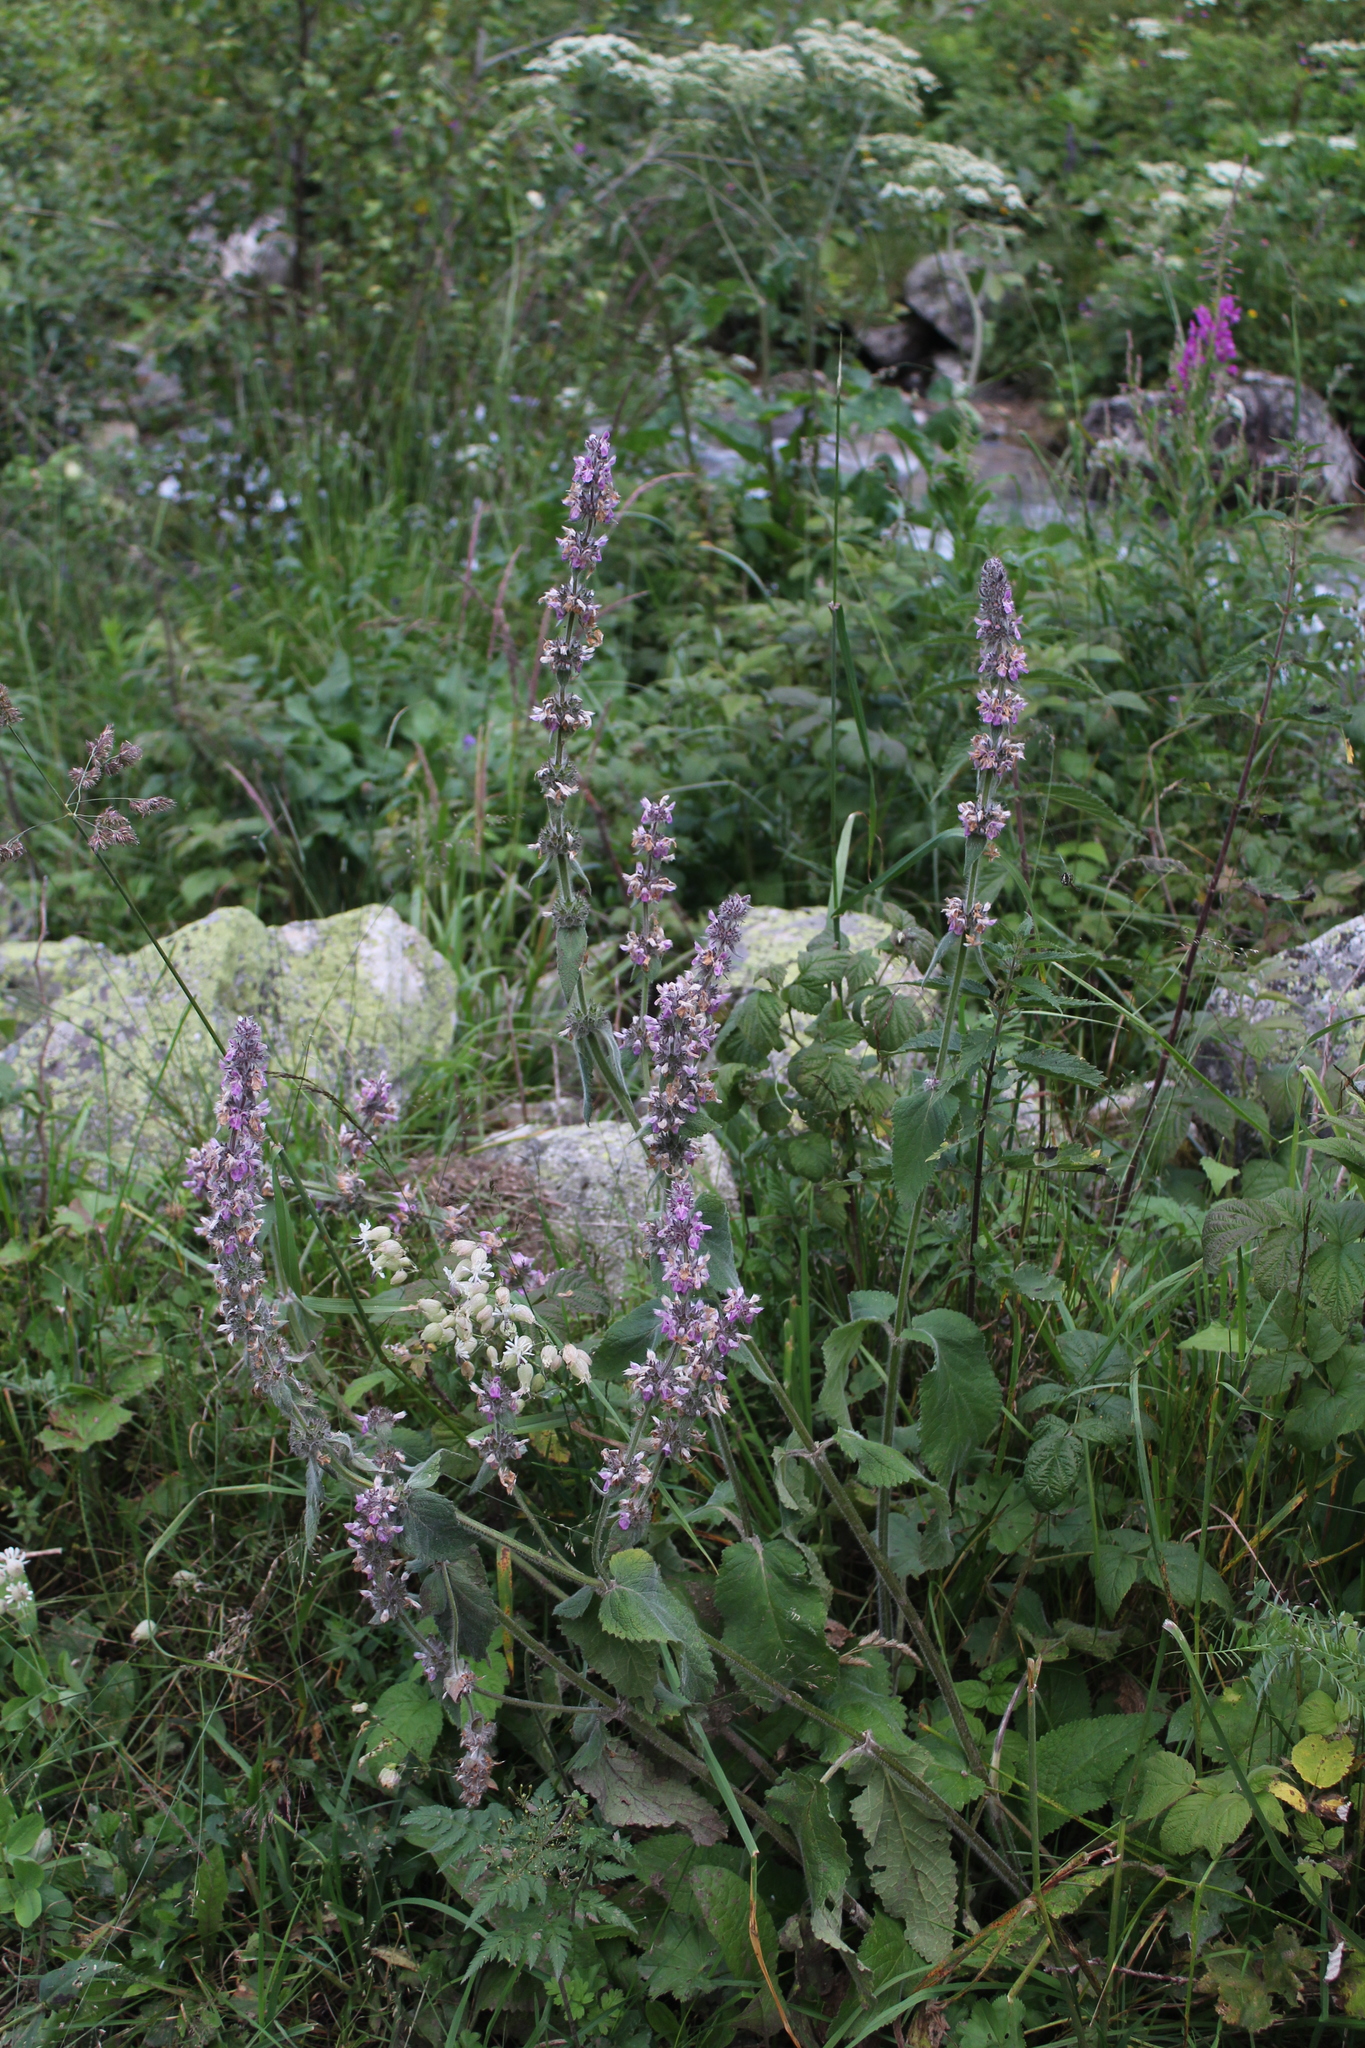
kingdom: Plantae
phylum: Tracheophyta
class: Magnoliopsida
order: Lamiales
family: Lamiaceae
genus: Stachys
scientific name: Stachys balansae
